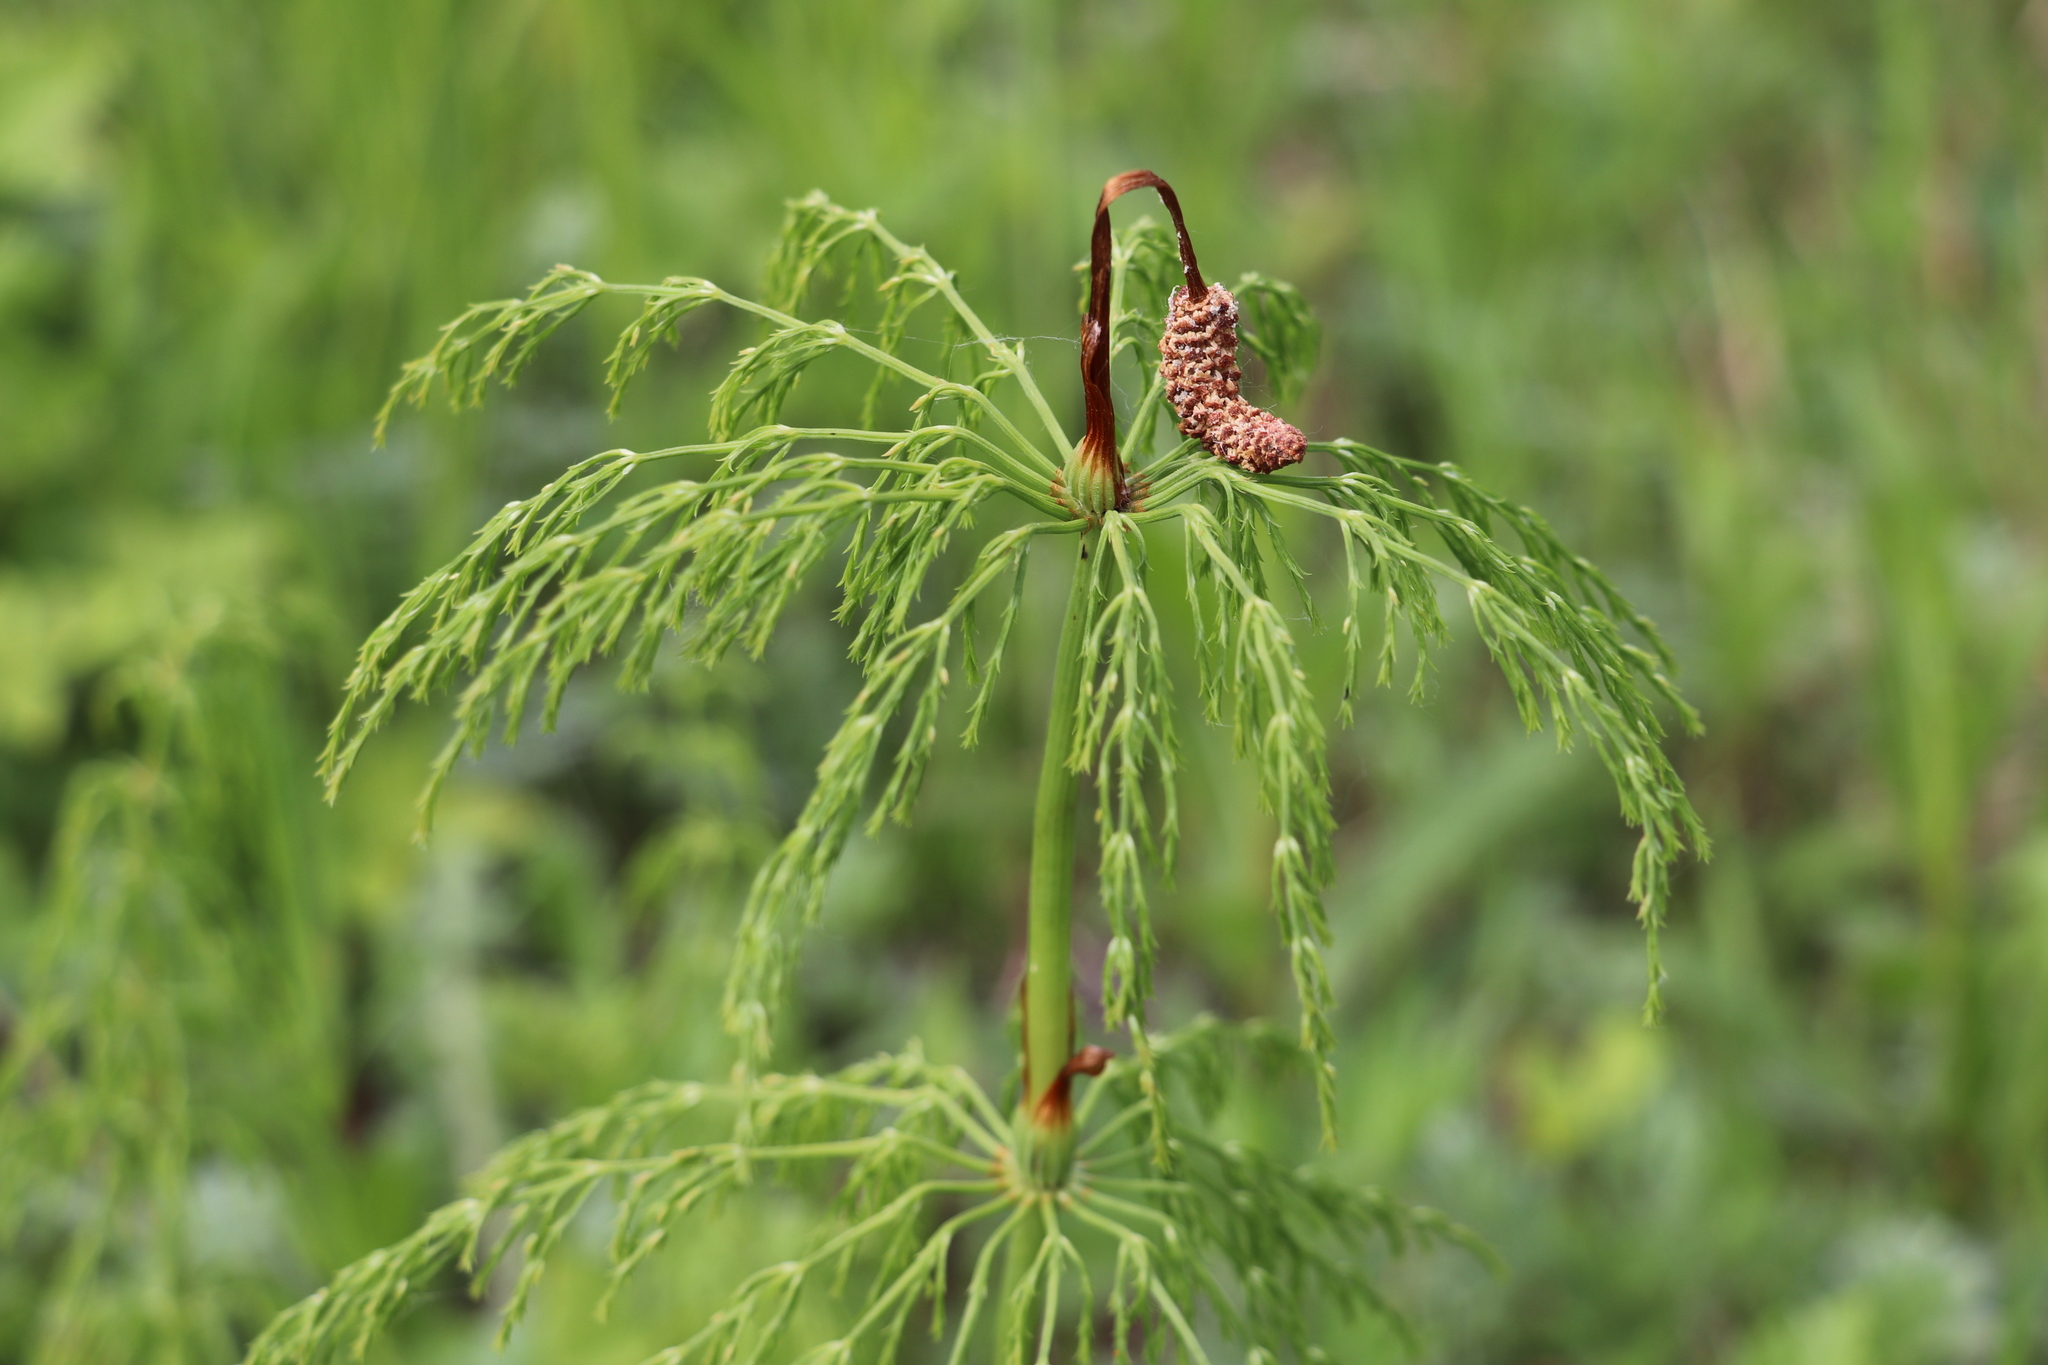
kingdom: Plantae
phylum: Tracheophyta
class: Polypodiopsida
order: Equisetales
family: Equisetaceae
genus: Equisetum
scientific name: Equisetum sylvaticum
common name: Wood horsetail
